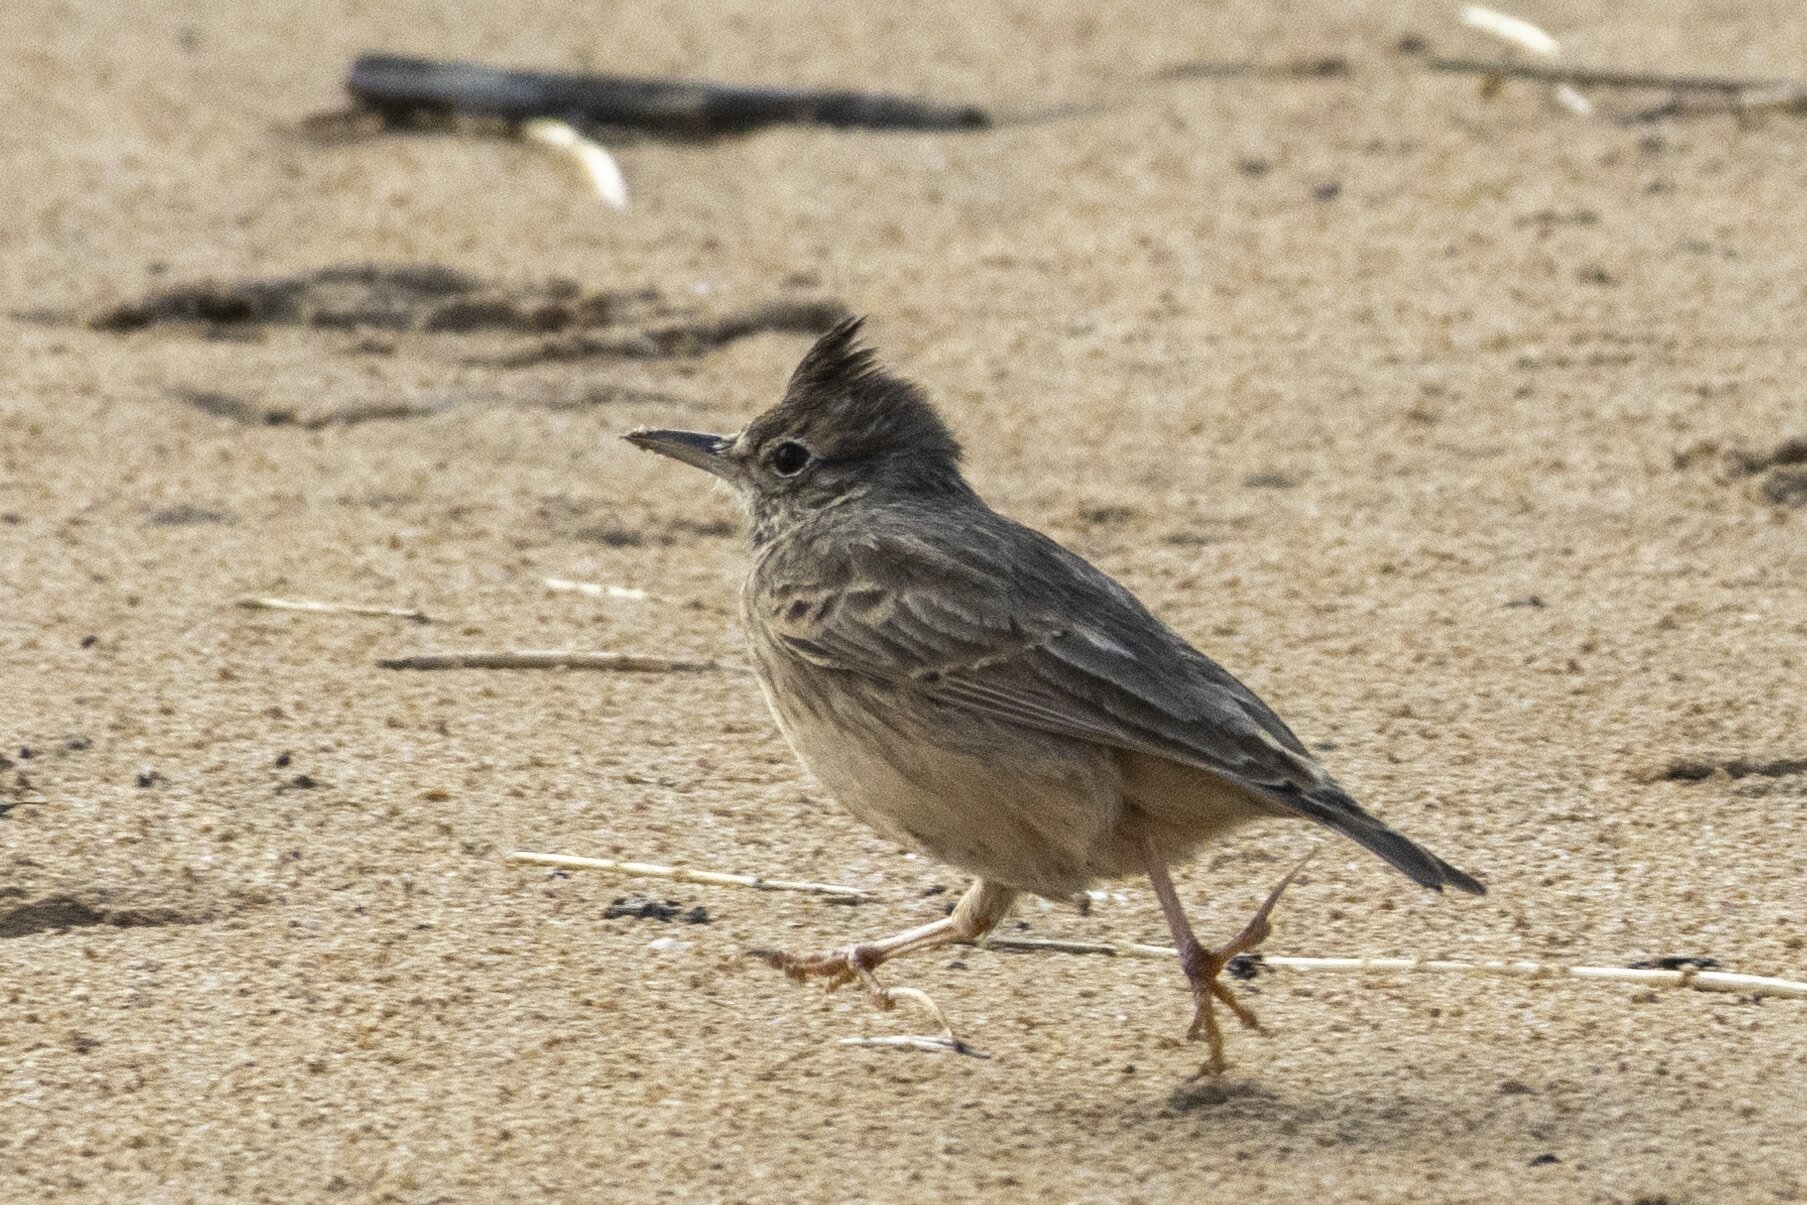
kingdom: Animalia
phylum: Chordata
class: Aves
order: Passeriformes
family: Alaudidae
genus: Galerida
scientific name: Galerida cristata
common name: Crested lark
